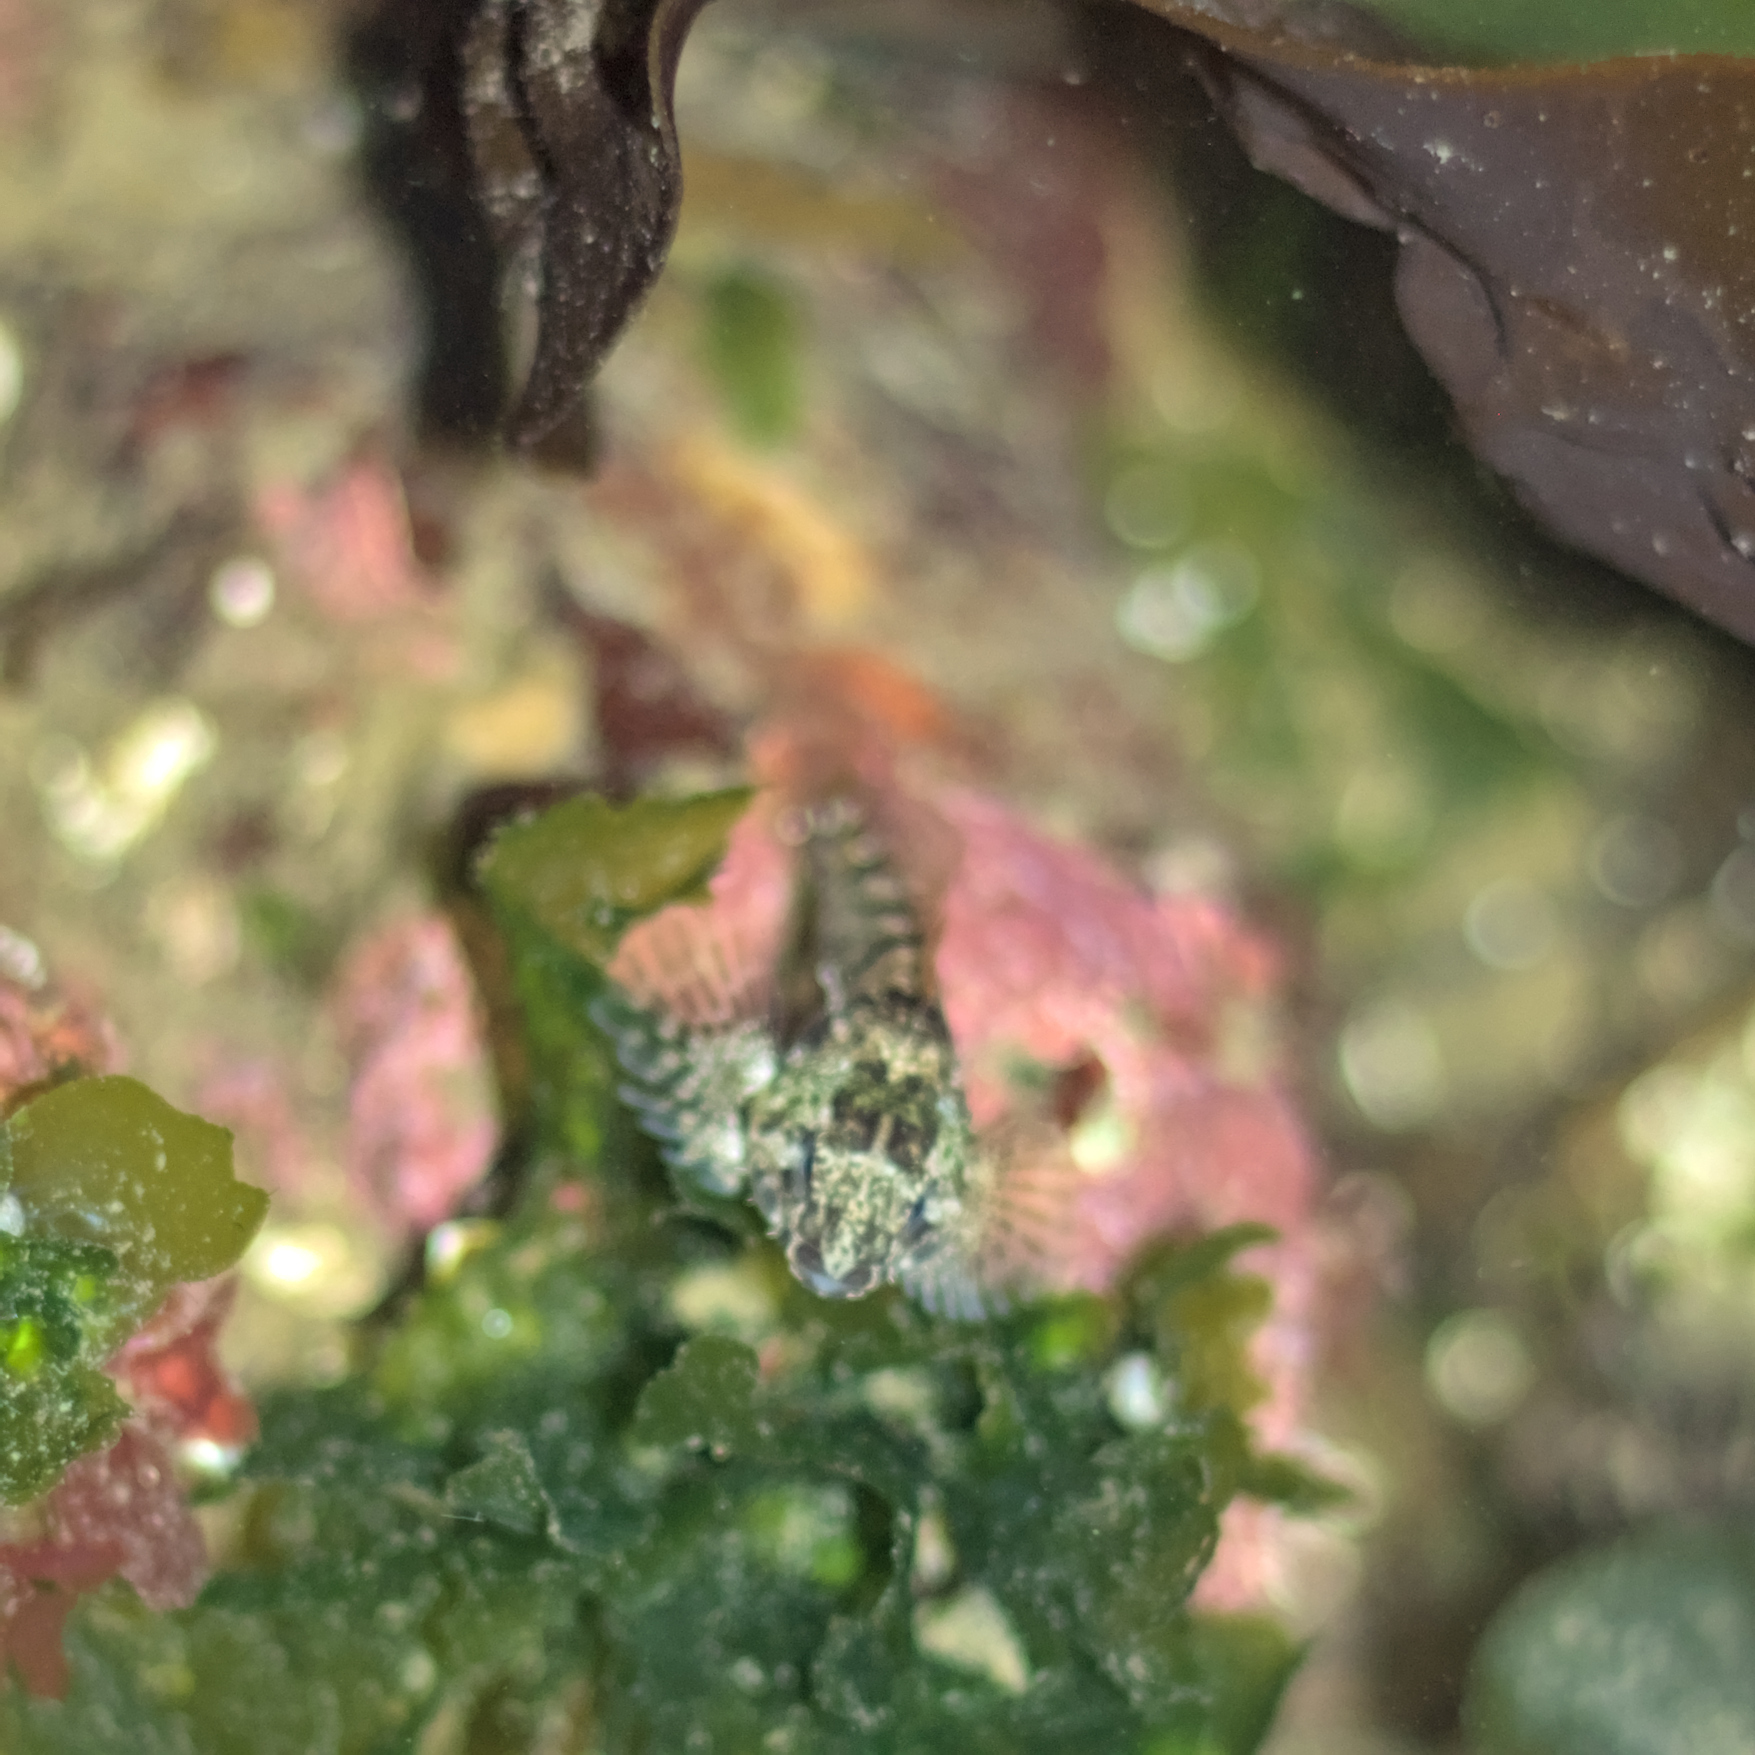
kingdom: Animalia
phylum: Chordata
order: Scorpaeniformes
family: Cottidae
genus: Oligocottus
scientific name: Oligocottus maculosus
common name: Tidepool sculpin
